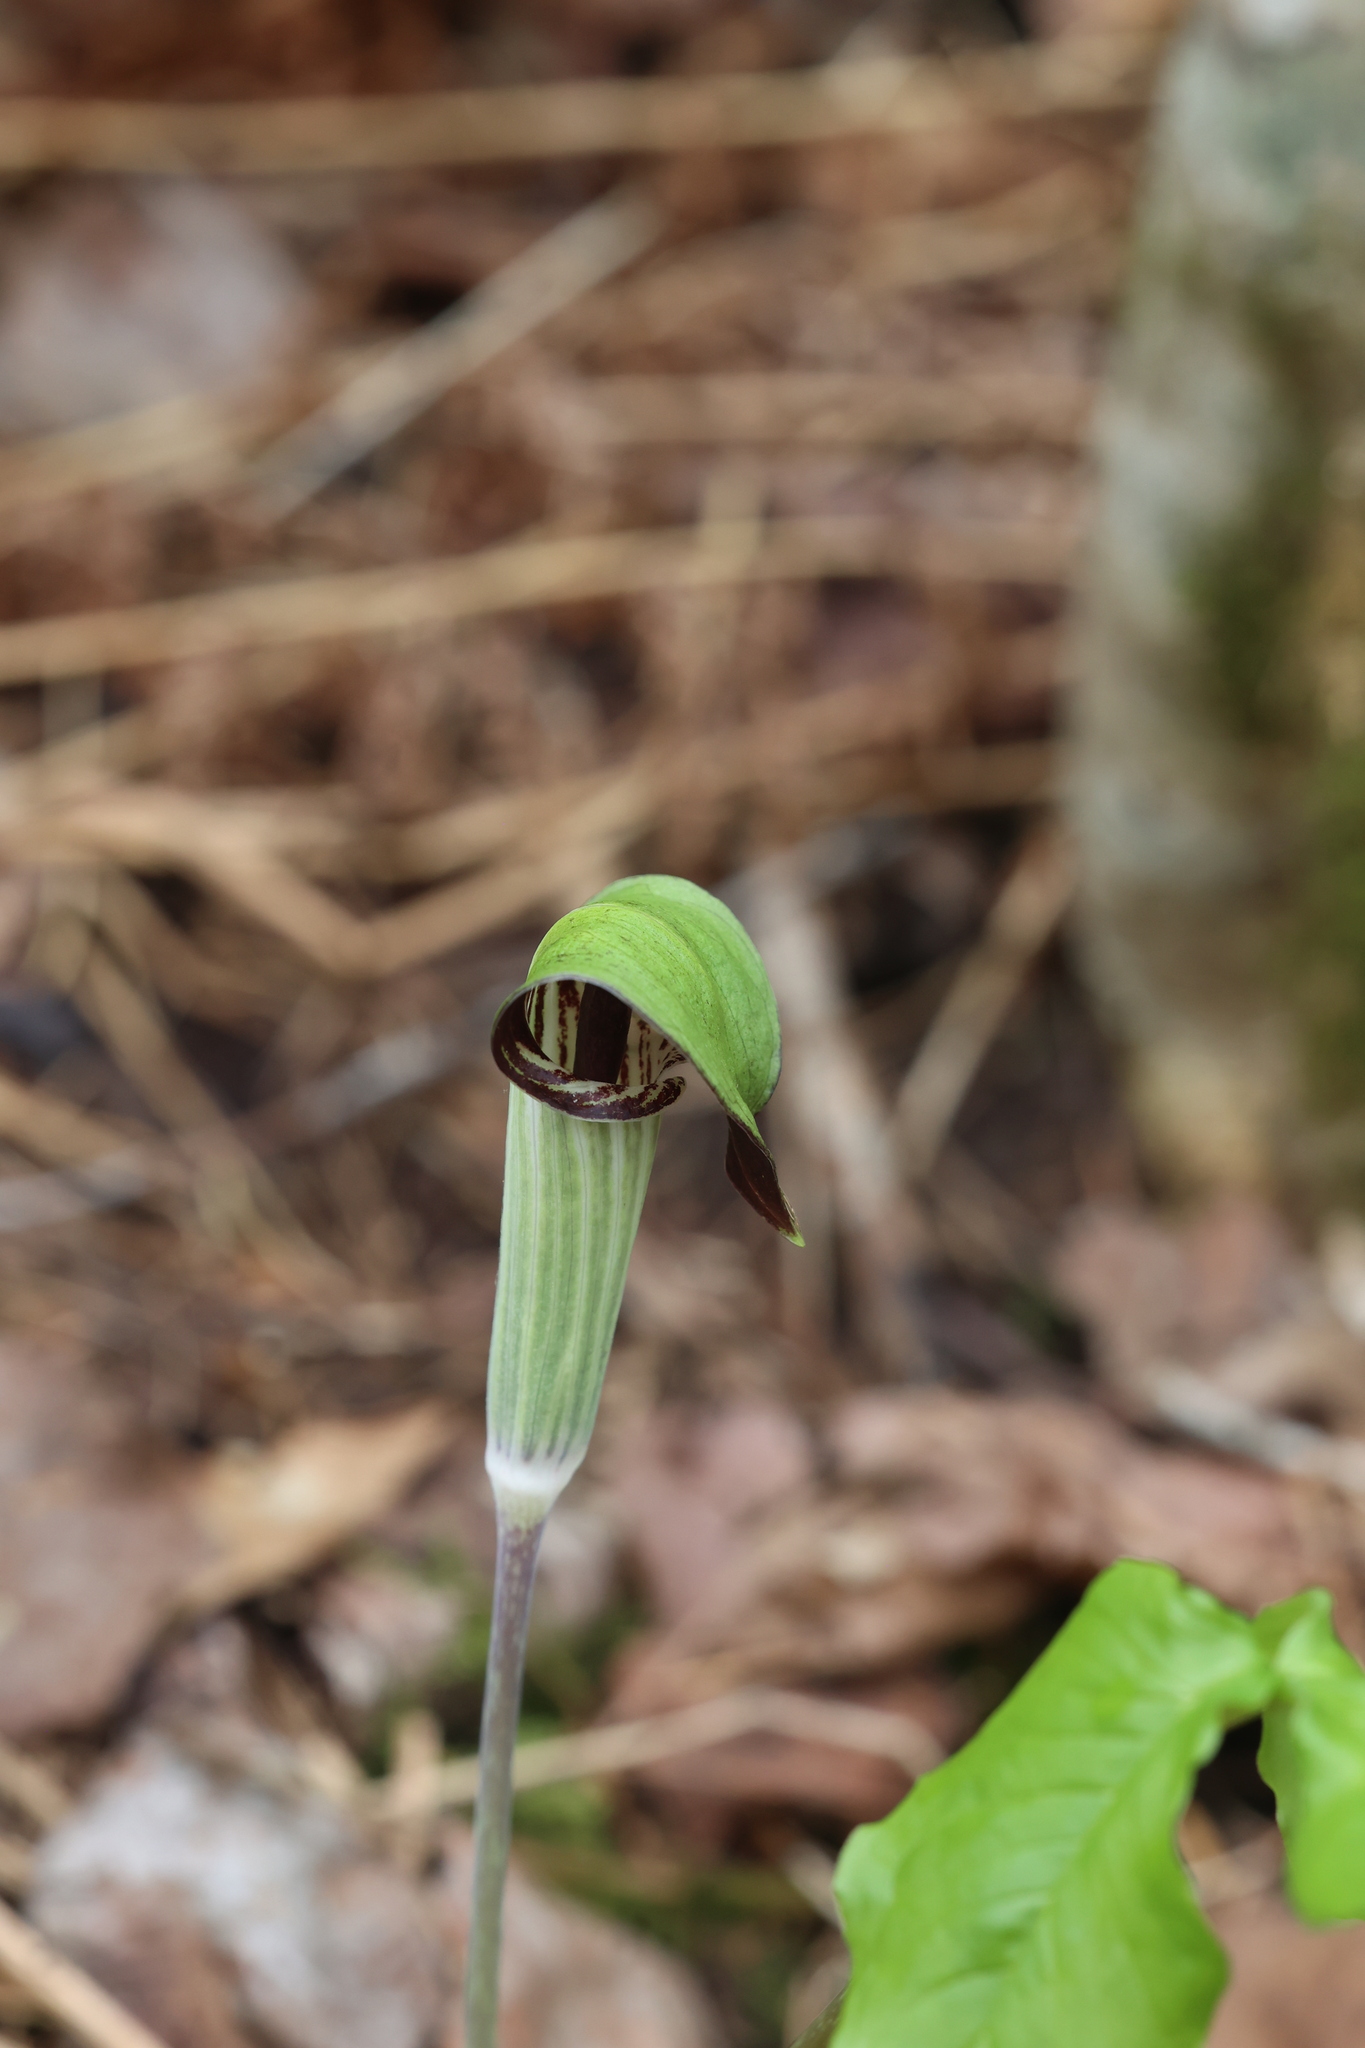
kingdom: Plantae
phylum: Tracheophyta
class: Liliopsida
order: Alismatales
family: Araceae
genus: Arisaema
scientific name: Arisaema triphyllum
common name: Jack-in-the-pulpit
